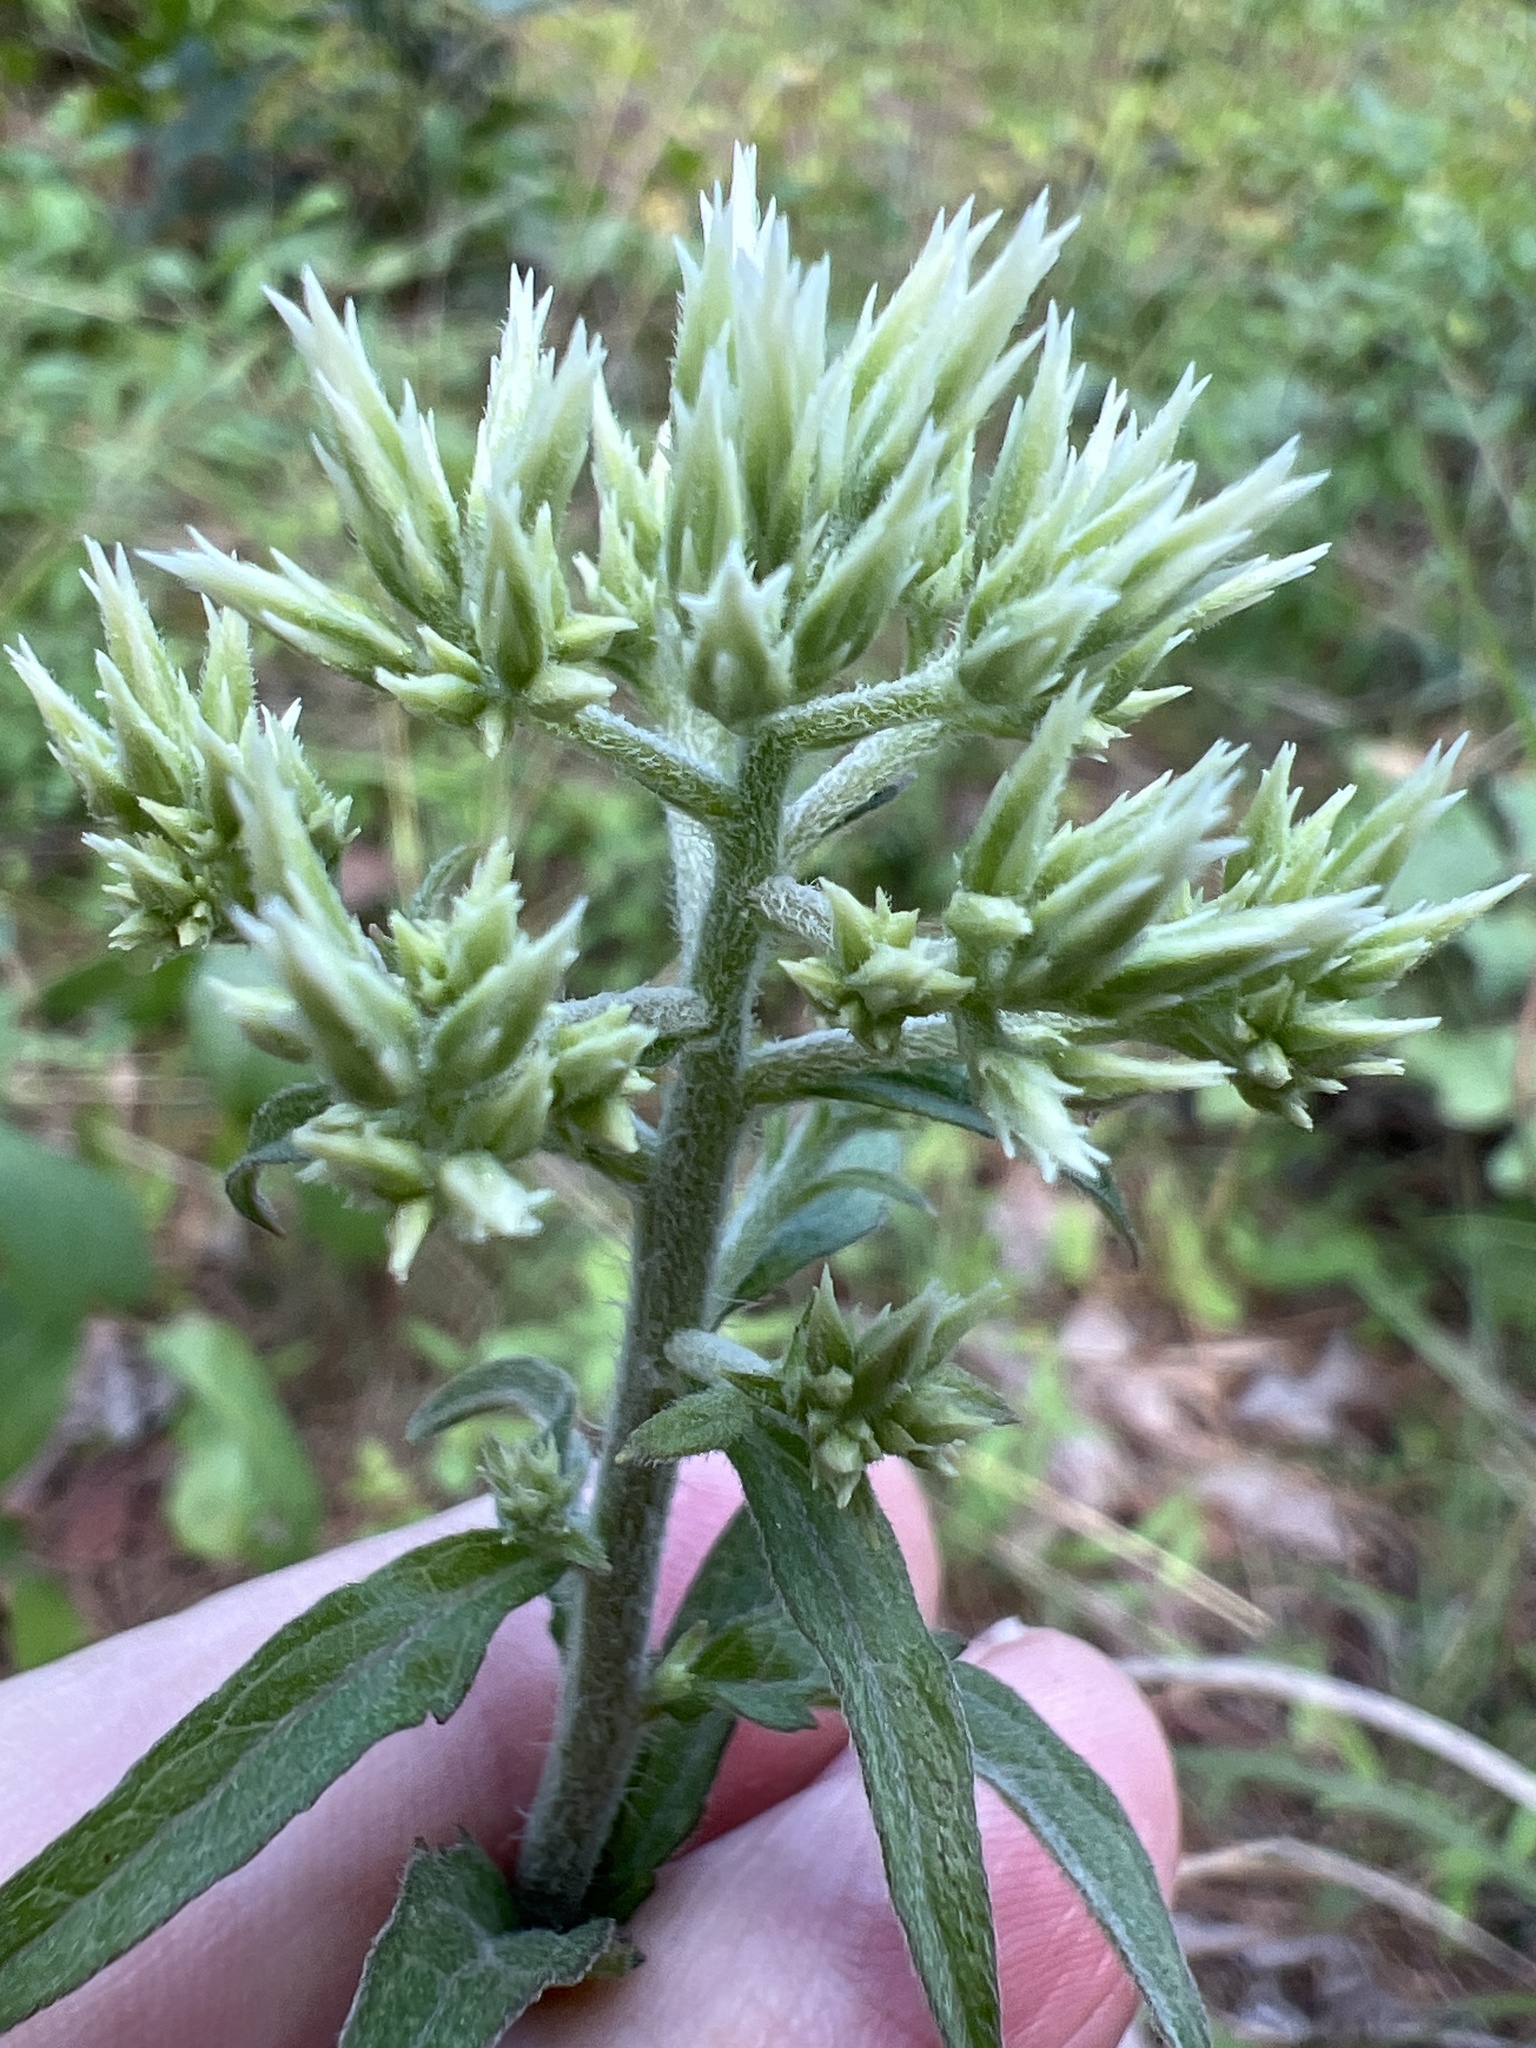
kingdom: Plantae
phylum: Tracheophyta
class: Magnoliopsida
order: Asterales
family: Asteraceae
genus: Eupatorium
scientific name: Eupatorium album
